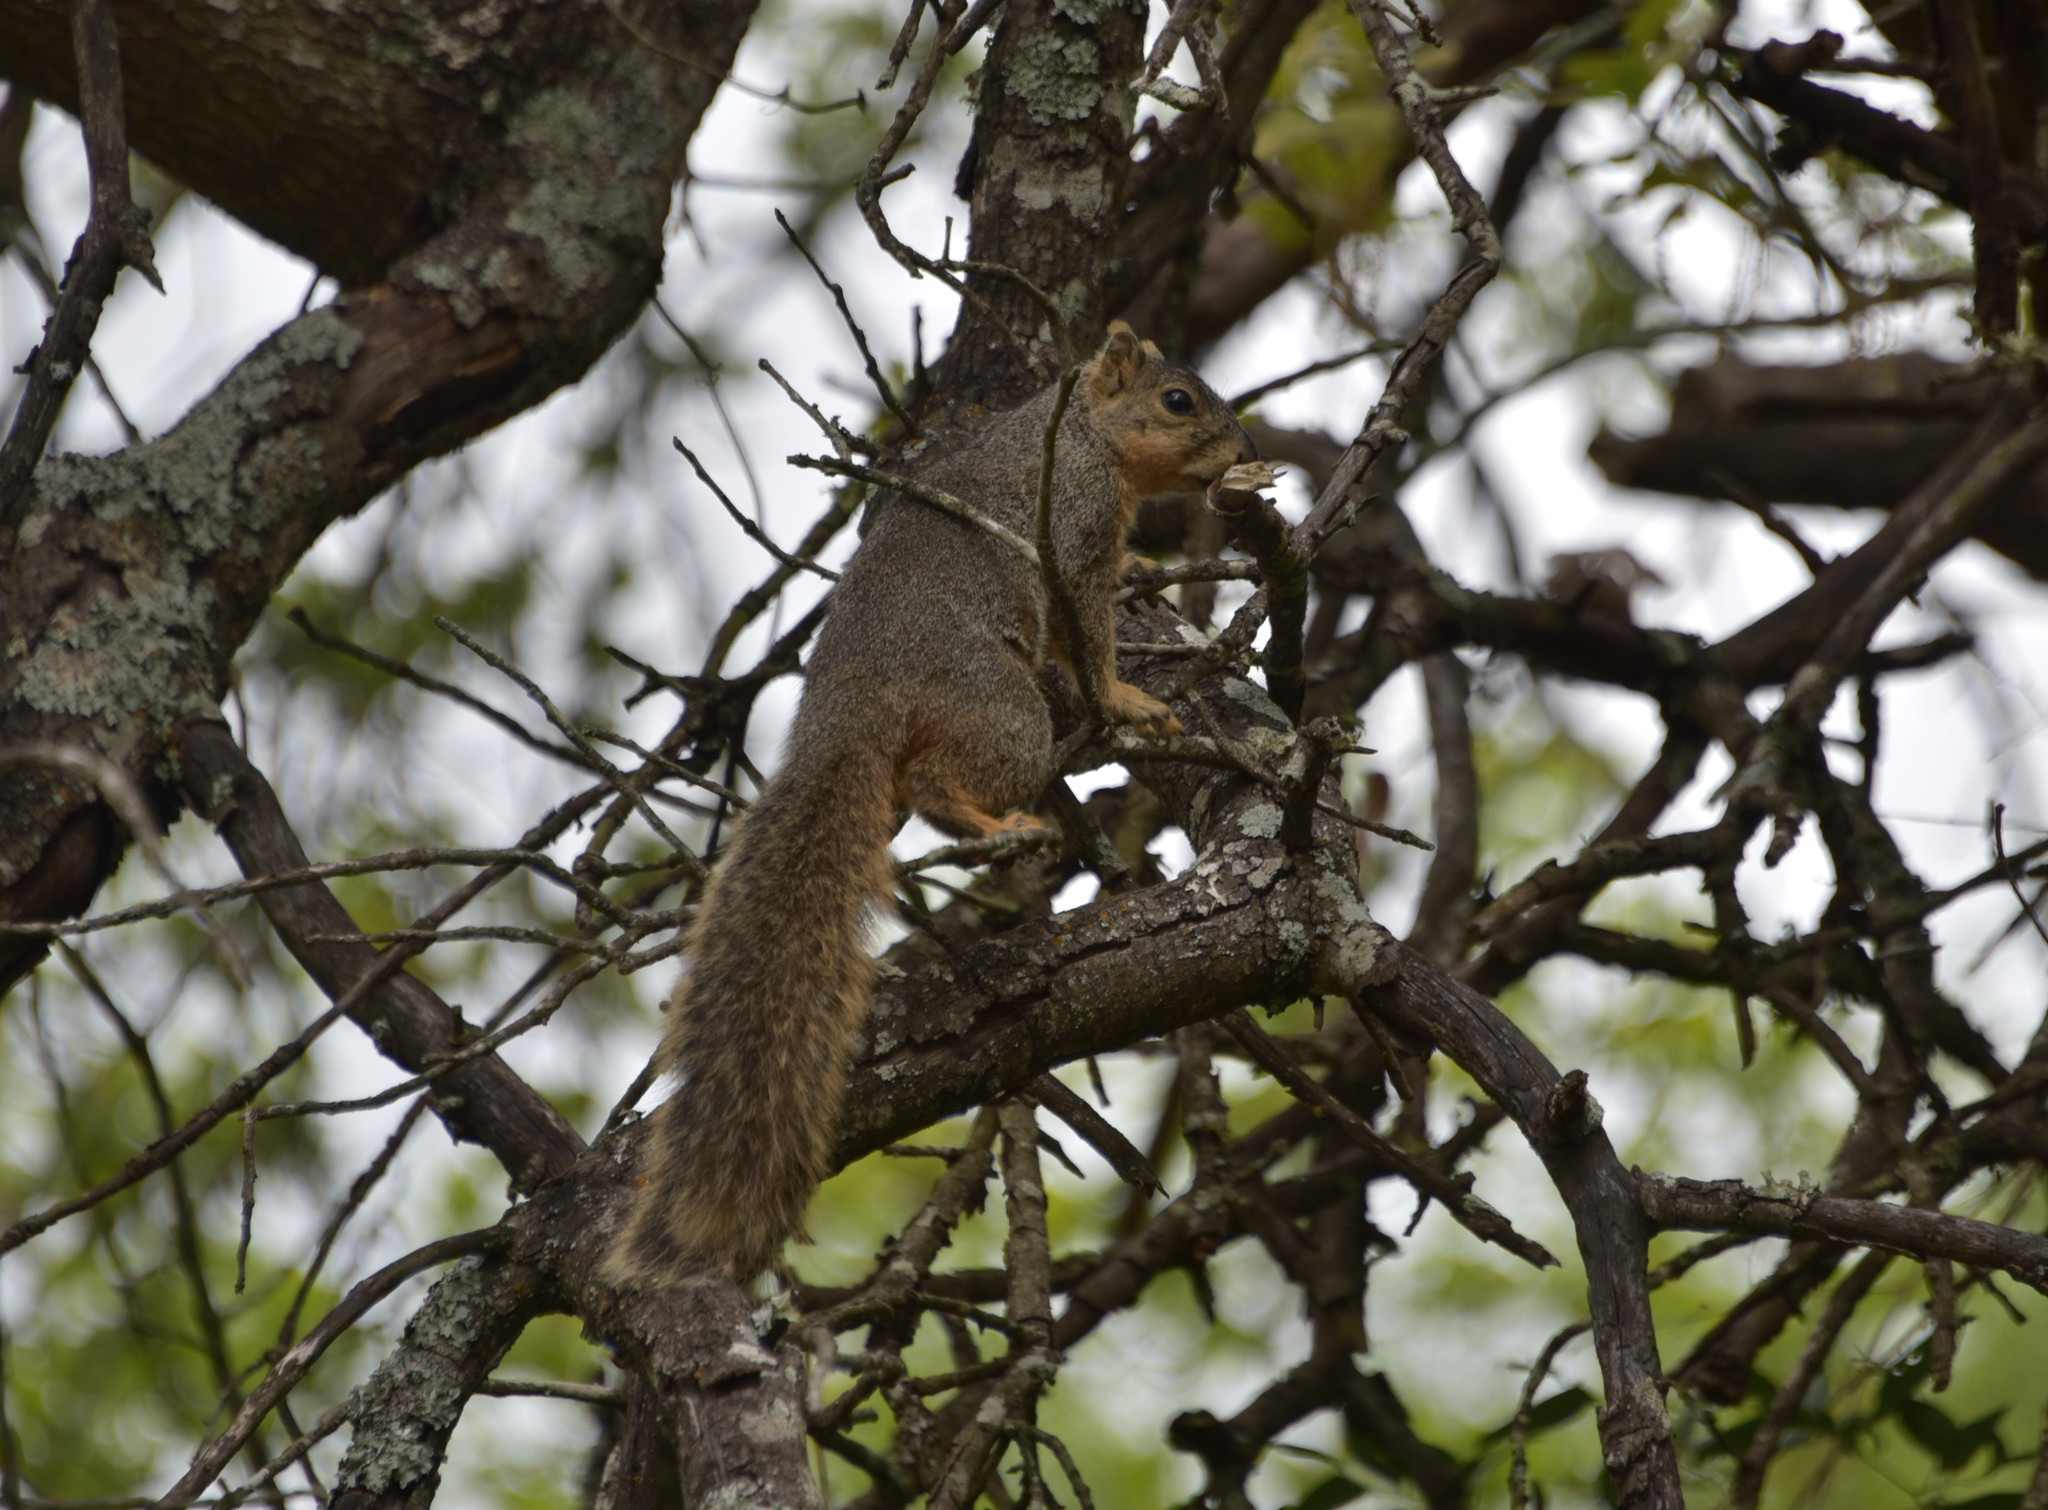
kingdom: Animalia
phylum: Chordata
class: Mammalia
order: Rodentia
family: Sciuridae
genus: Sciurus
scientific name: Sciurus niger
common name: Fox squirrel
